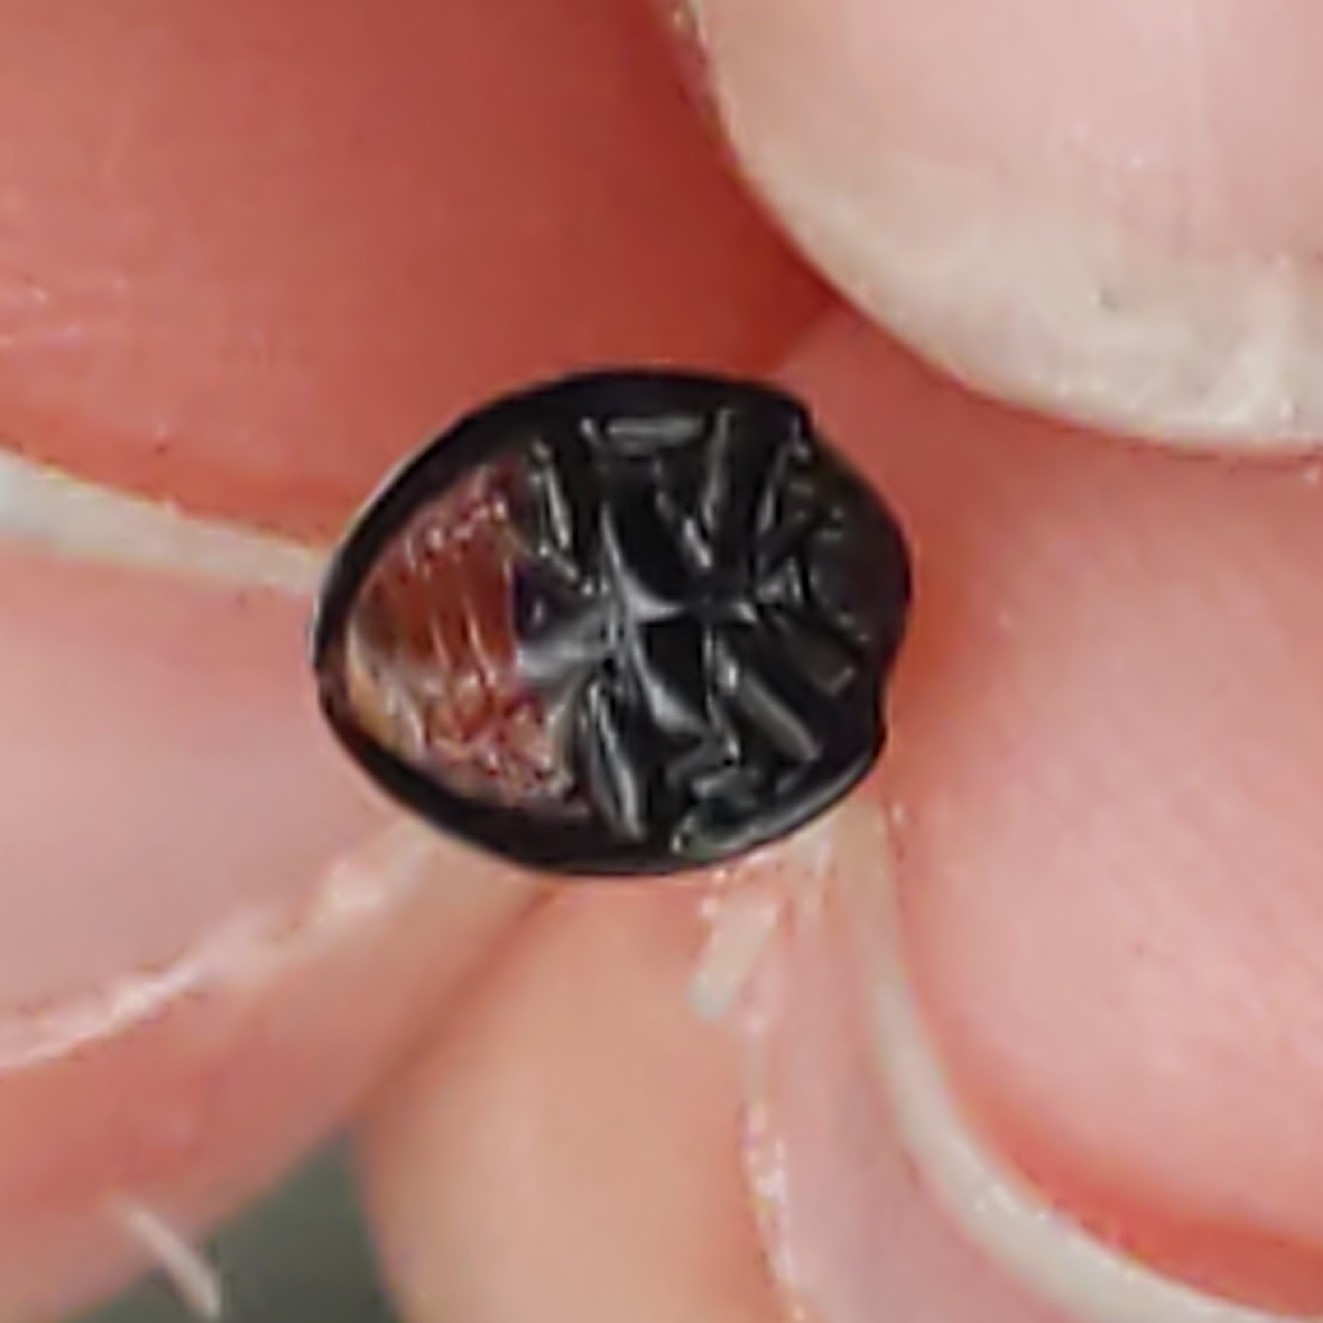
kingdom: Animalia
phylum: Arthropoda
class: Insecta
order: Coleoptera
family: Coccinellidae
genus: Chilocorus
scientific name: Chilocorus stigma
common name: Twicestabbed lady beetle
